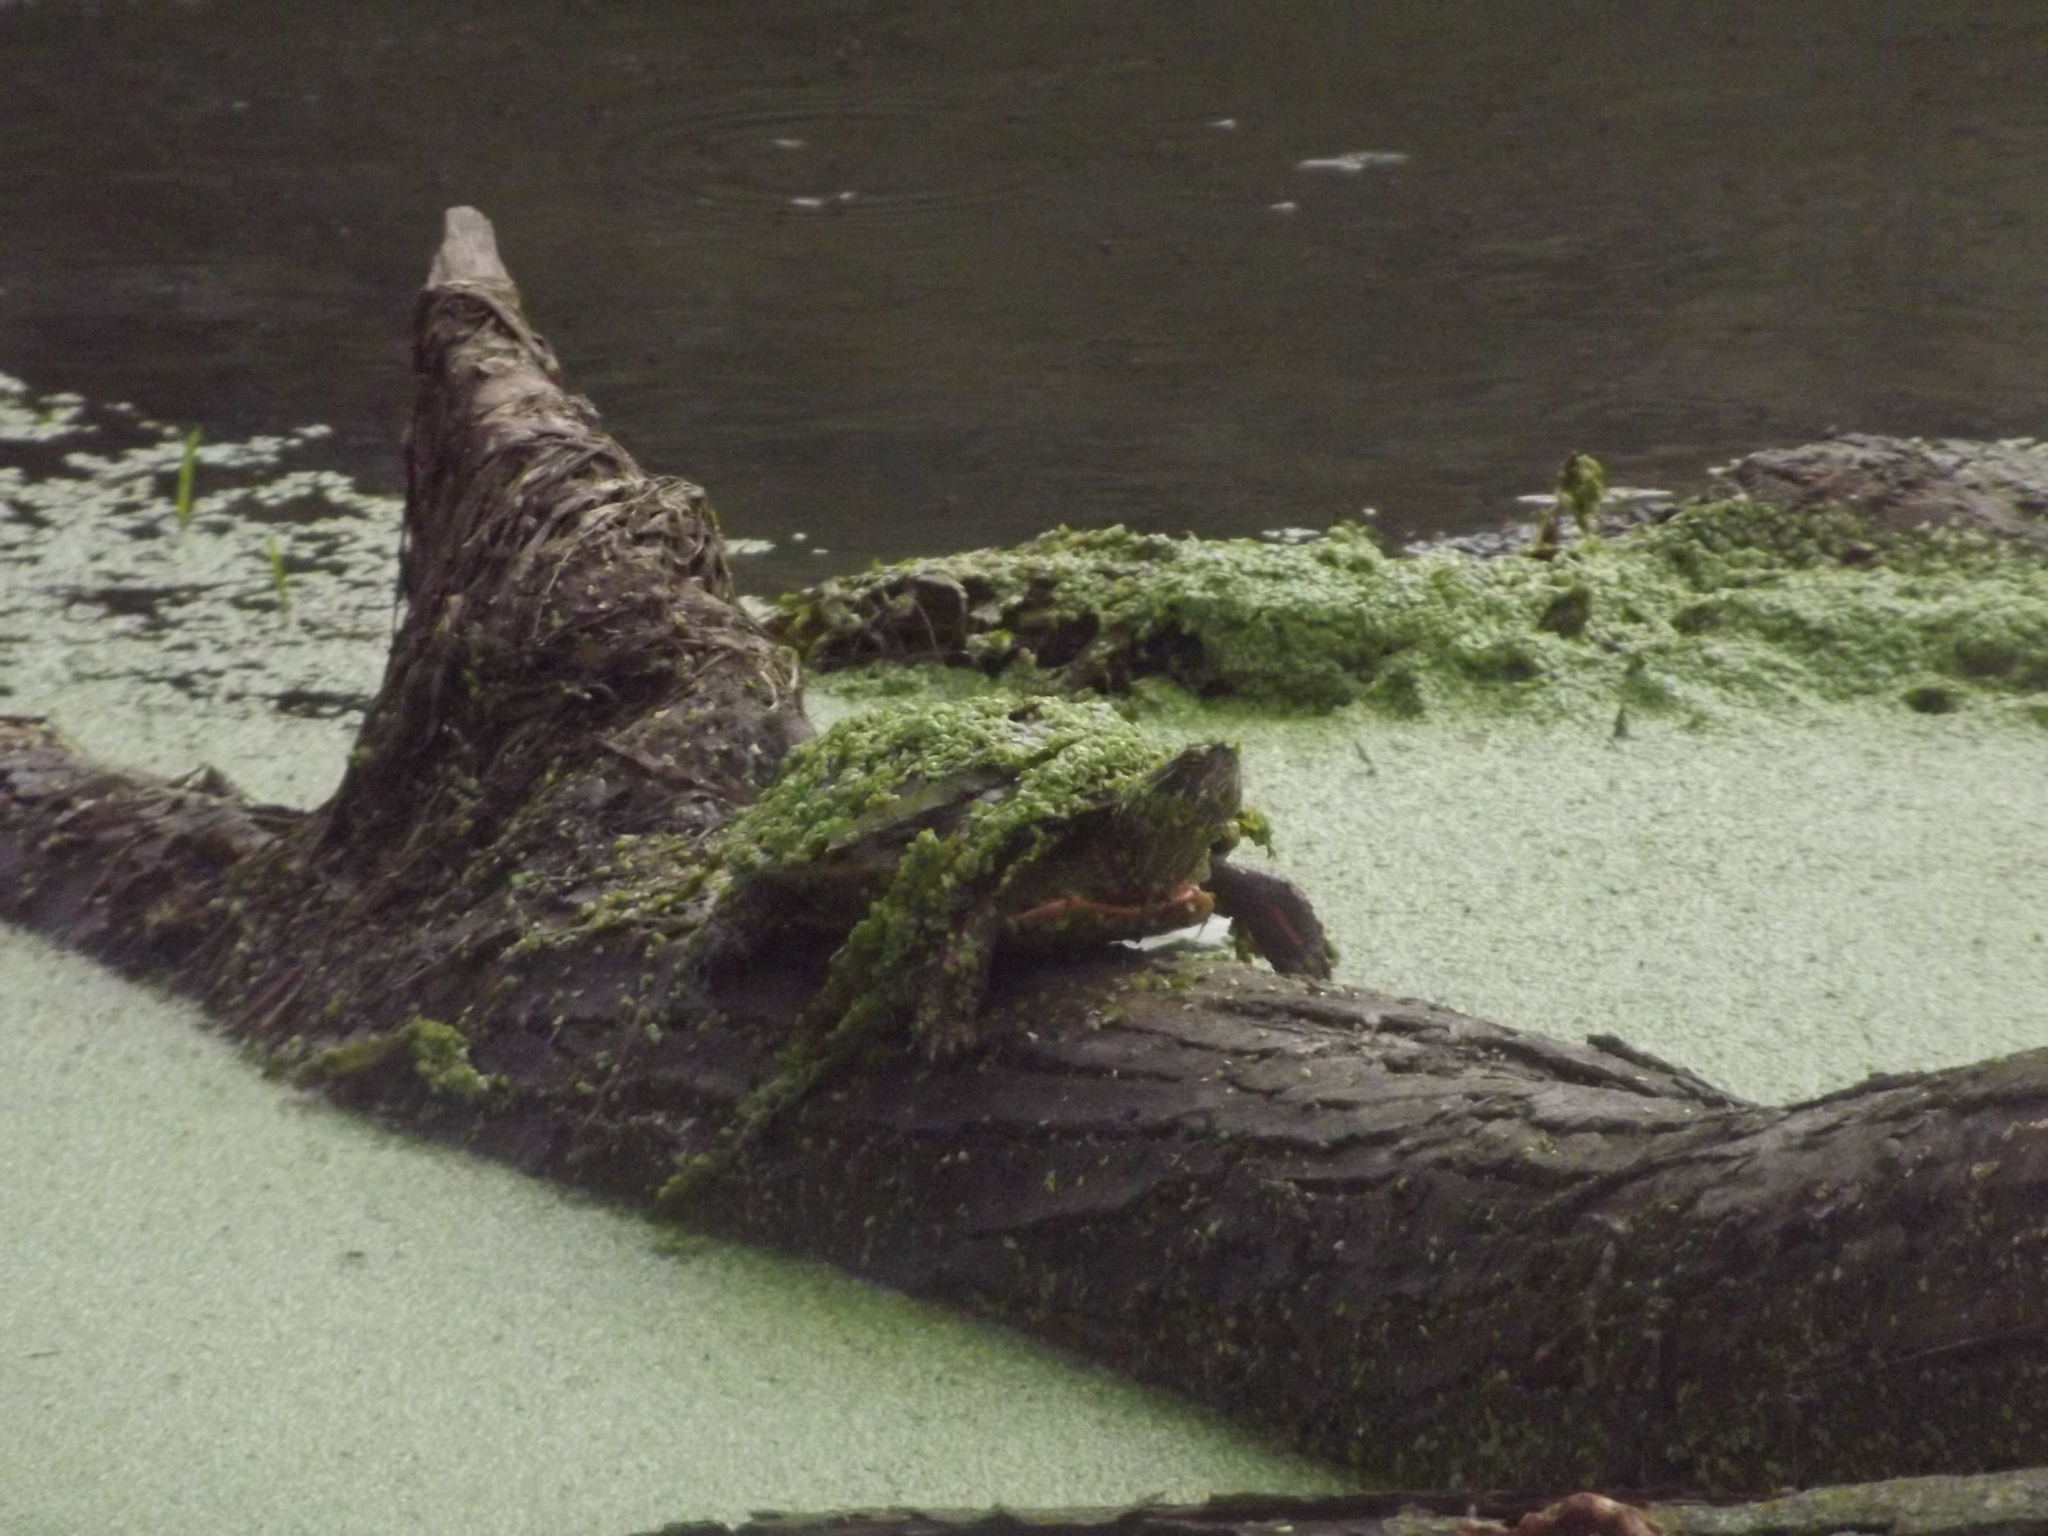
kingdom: Animalia
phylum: Chordata
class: Testudines
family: Emydidae
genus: Chrysemys
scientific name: Chrysemys picta
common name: Painted turtle
